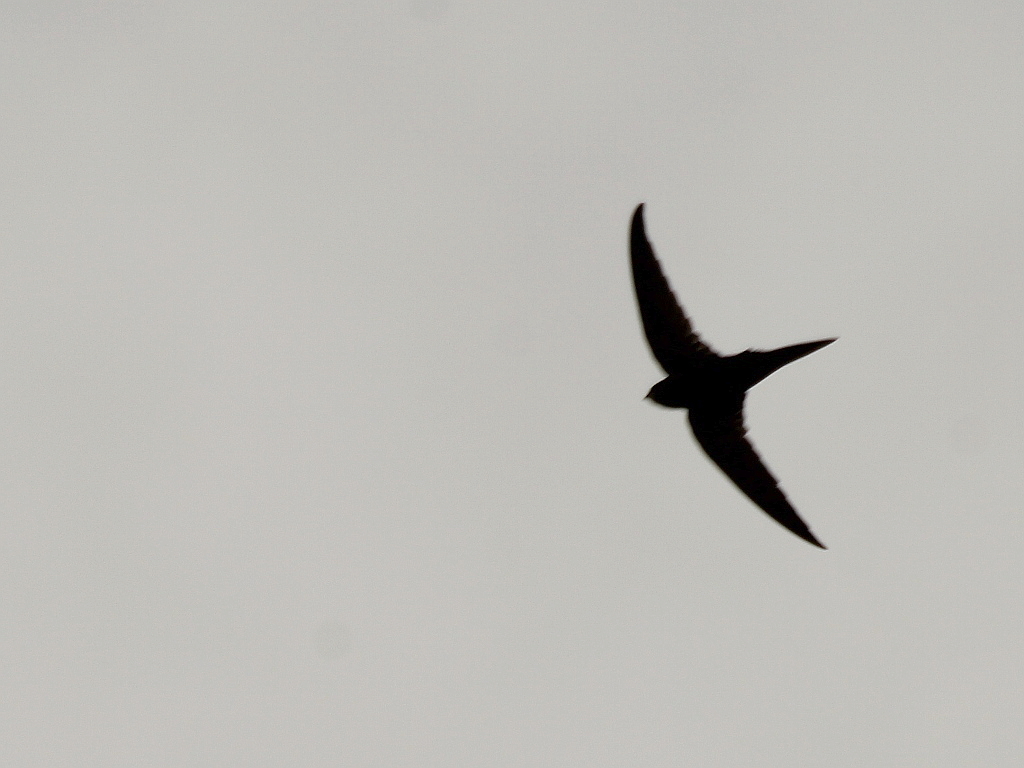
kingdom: Animalia
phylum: Chordata
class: Aves
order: Apodiformes
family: Apodidae
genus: Apus
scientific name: Apus apus
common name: Common swift
